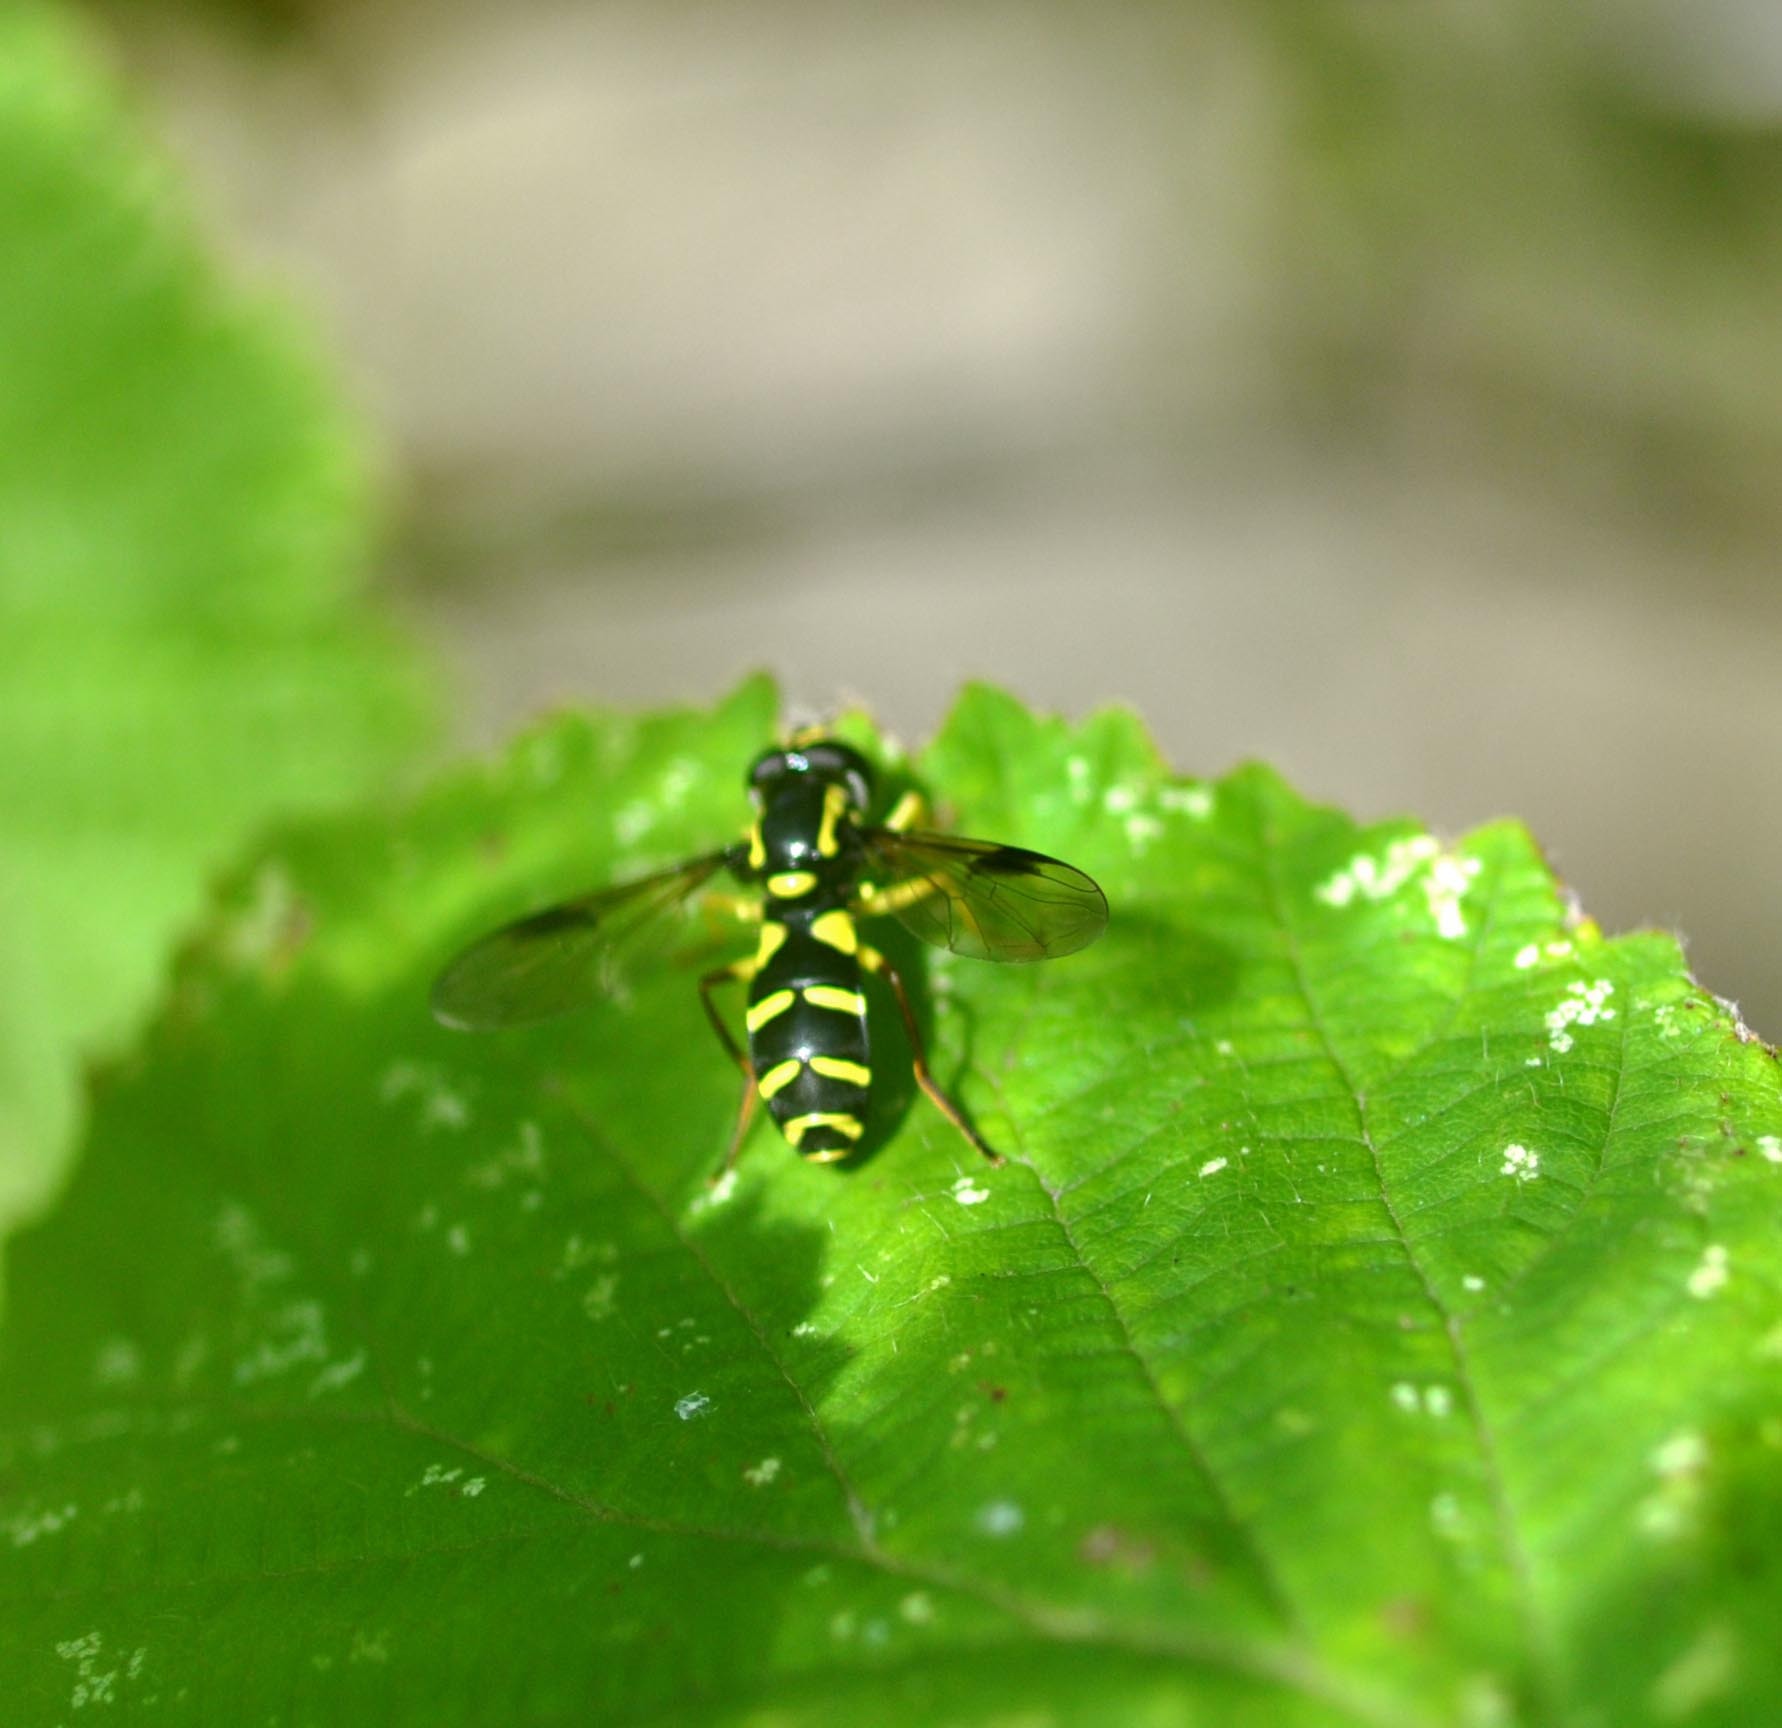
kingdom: Animalia
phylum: Arthropoda
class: Insecta
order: Diptera
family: Syrphidae
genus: Philhelius
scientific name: Philhelius pedissequum
